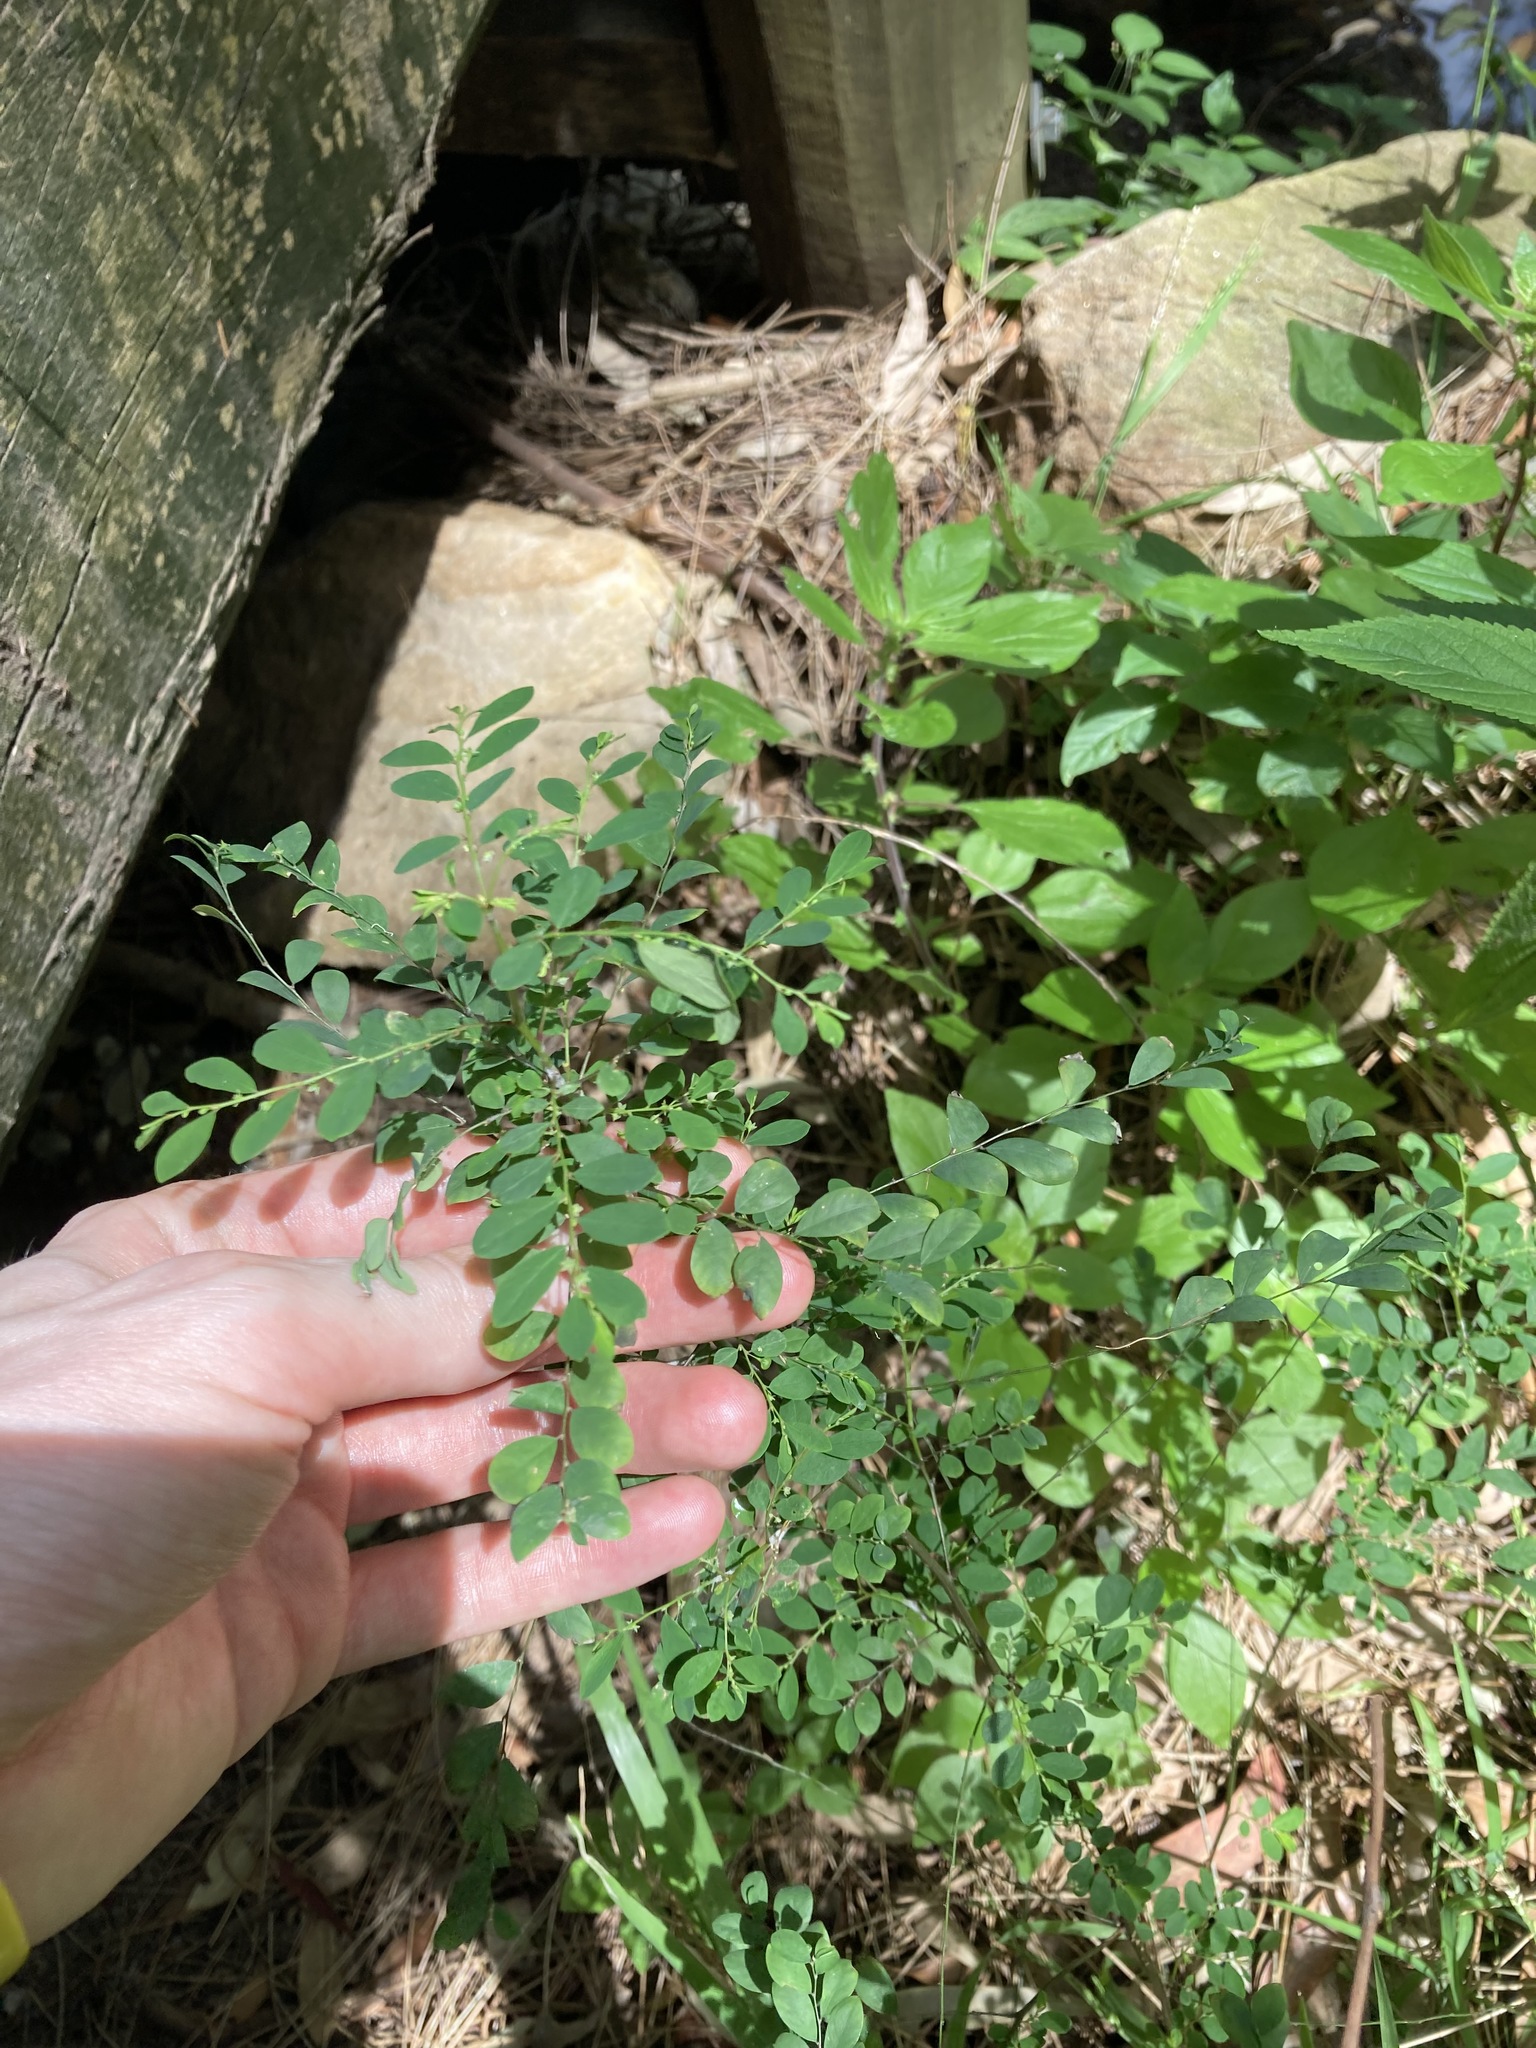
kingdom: Plantae
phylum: Tracheophyta
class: Magnoliopsida
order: Malpighiales
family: Phyllanthaceae
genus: Phyllanthus
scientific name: Phyllanthus tenellus
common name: Mascarene island leaf-flower
